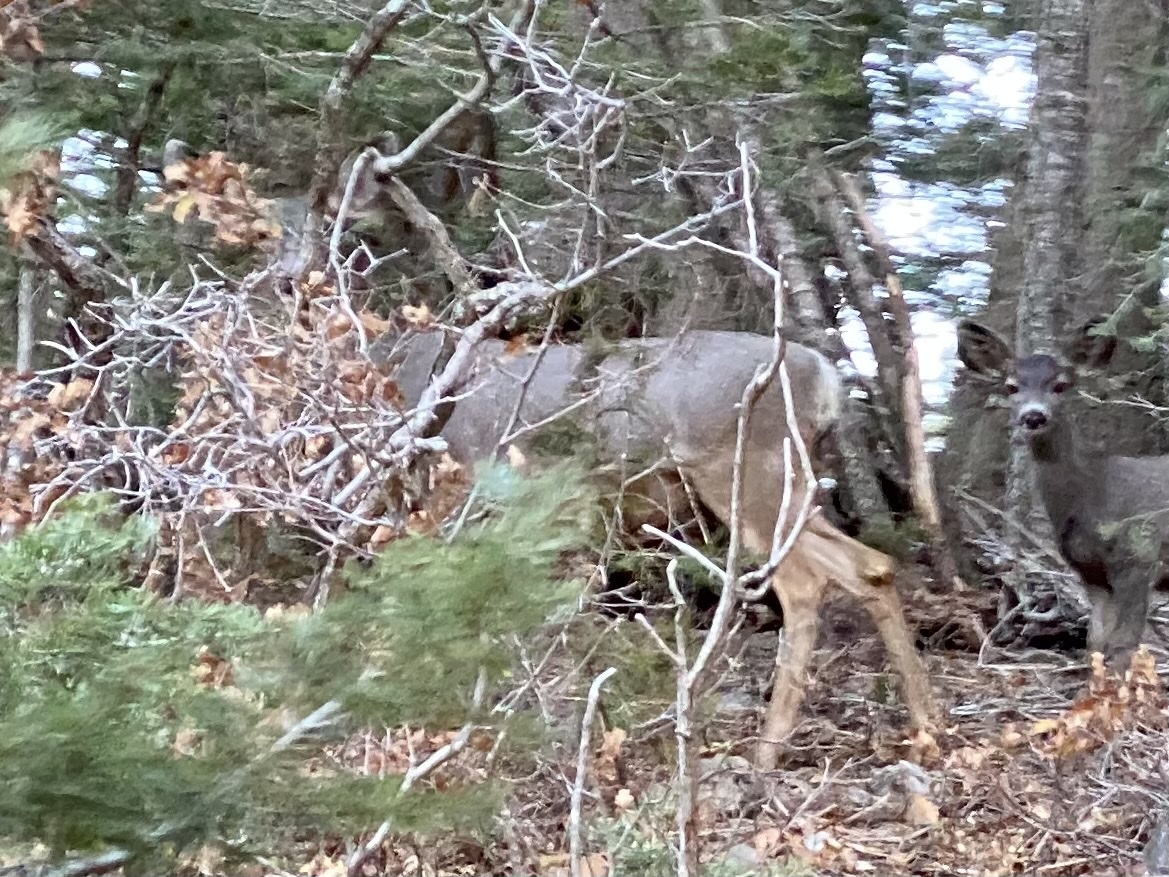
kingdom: Animalia
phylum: Chordata
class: Mammalia
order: Artiodactyla
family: Cervidae
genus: Odocoileus
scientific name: Odocoileus hemionus
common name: Mule deer
